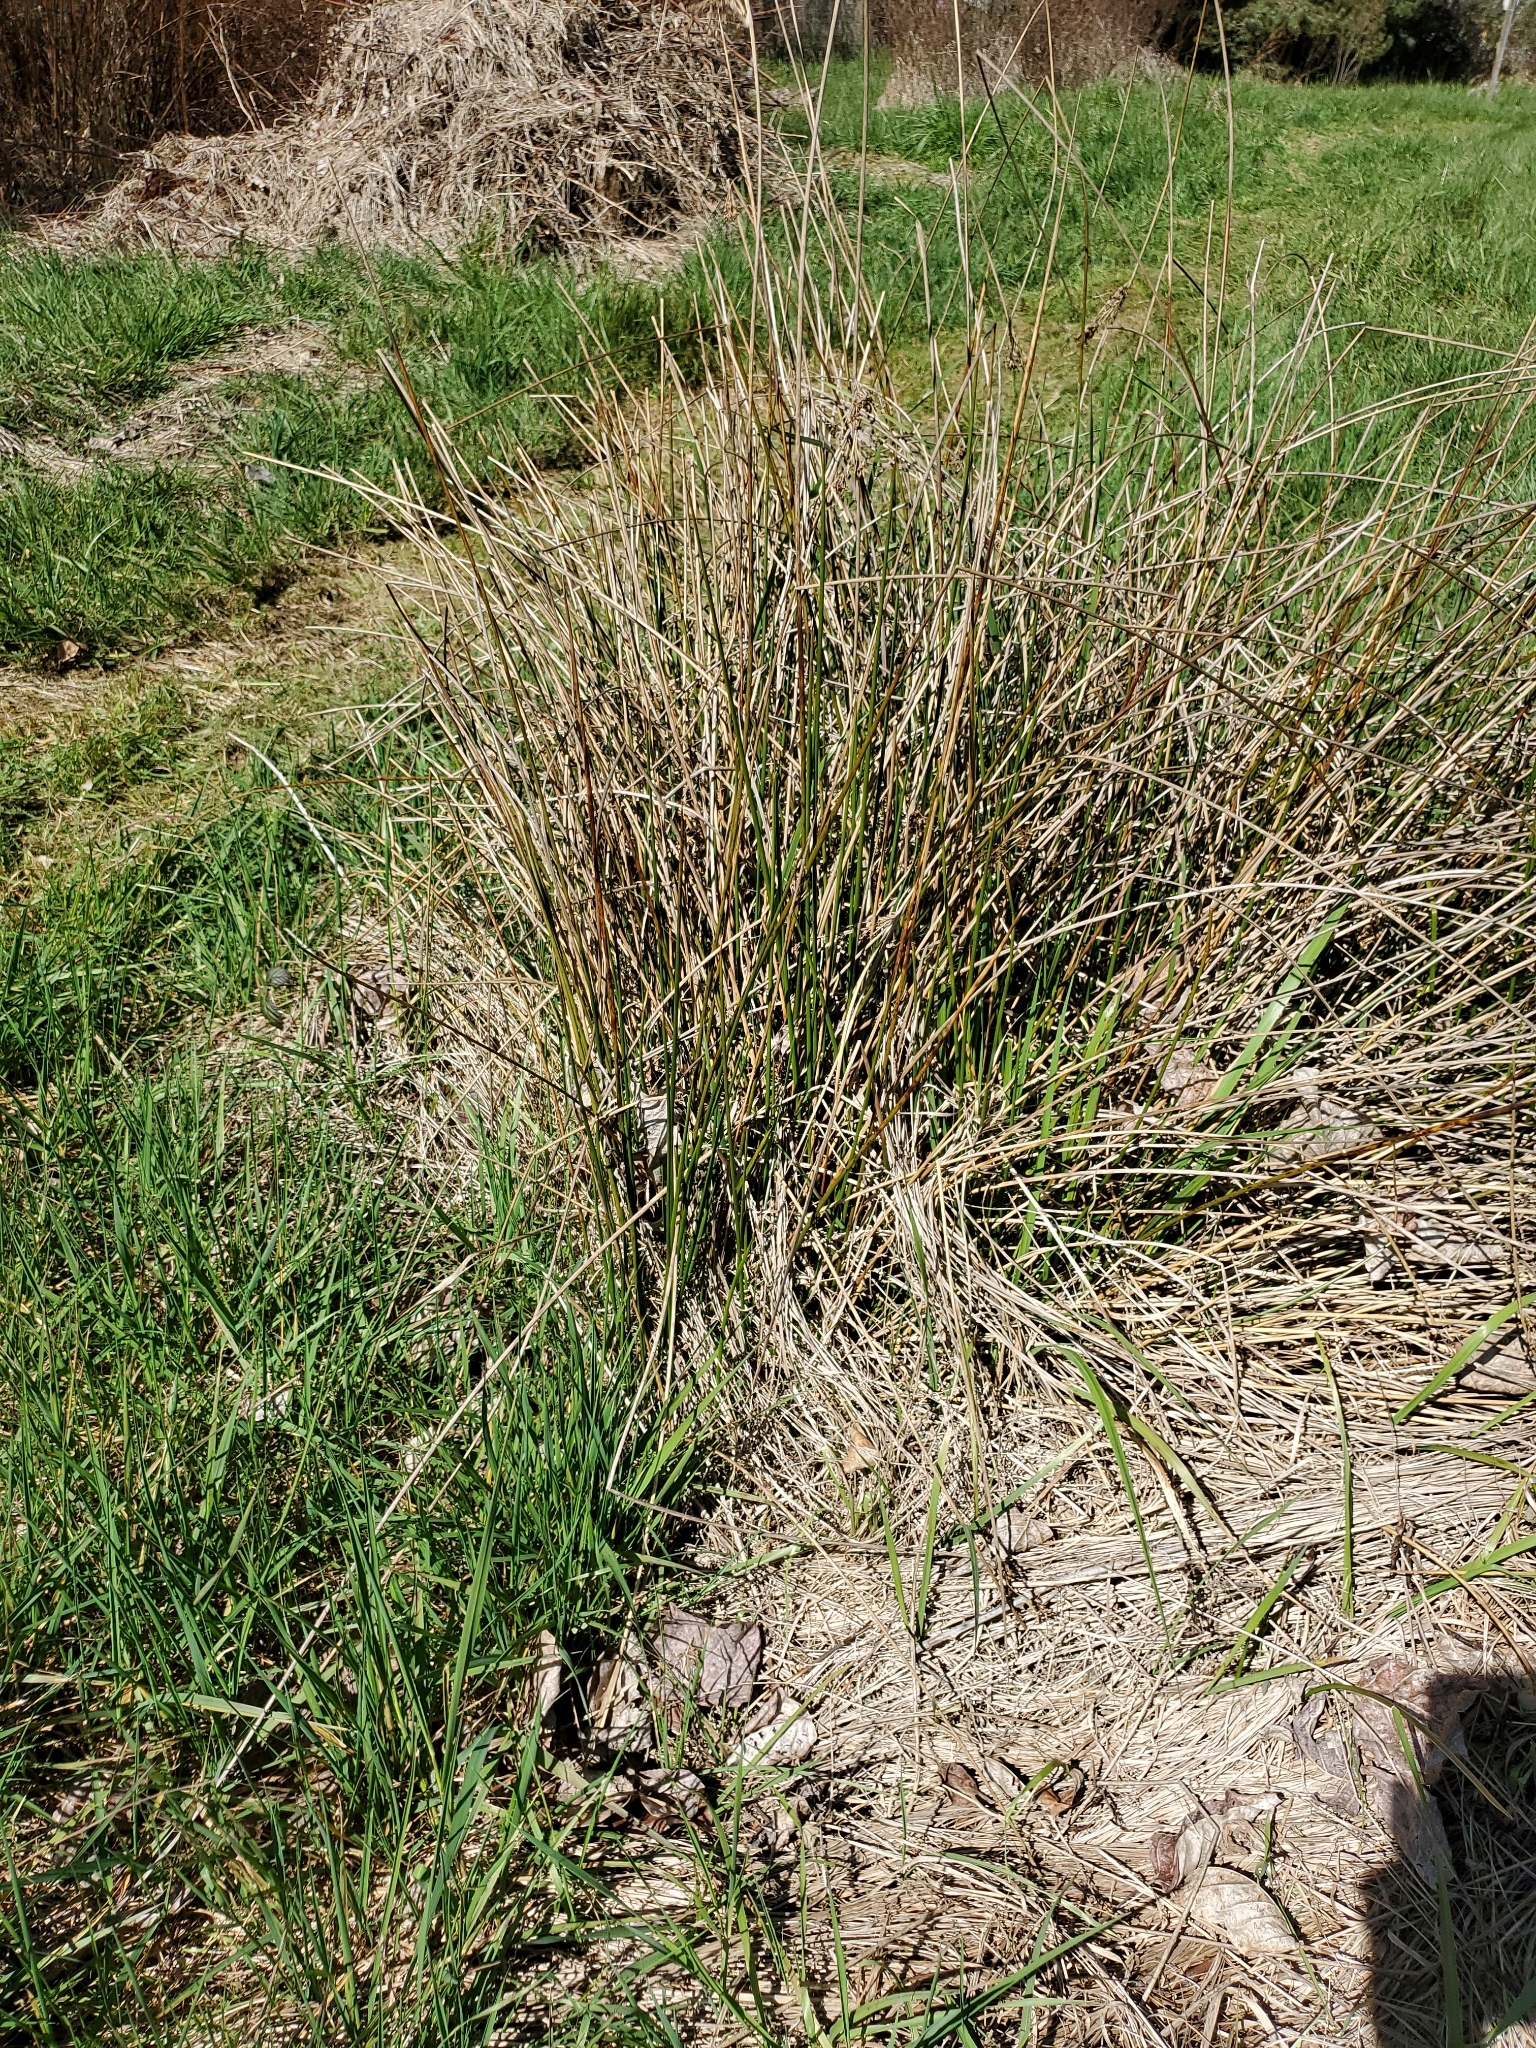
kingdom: Plantae
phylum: Tracheophyta
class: Liliopsida
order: Poales
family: Juncaceae
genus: Juncus
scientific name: Juncus effusus
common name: Soft rush
